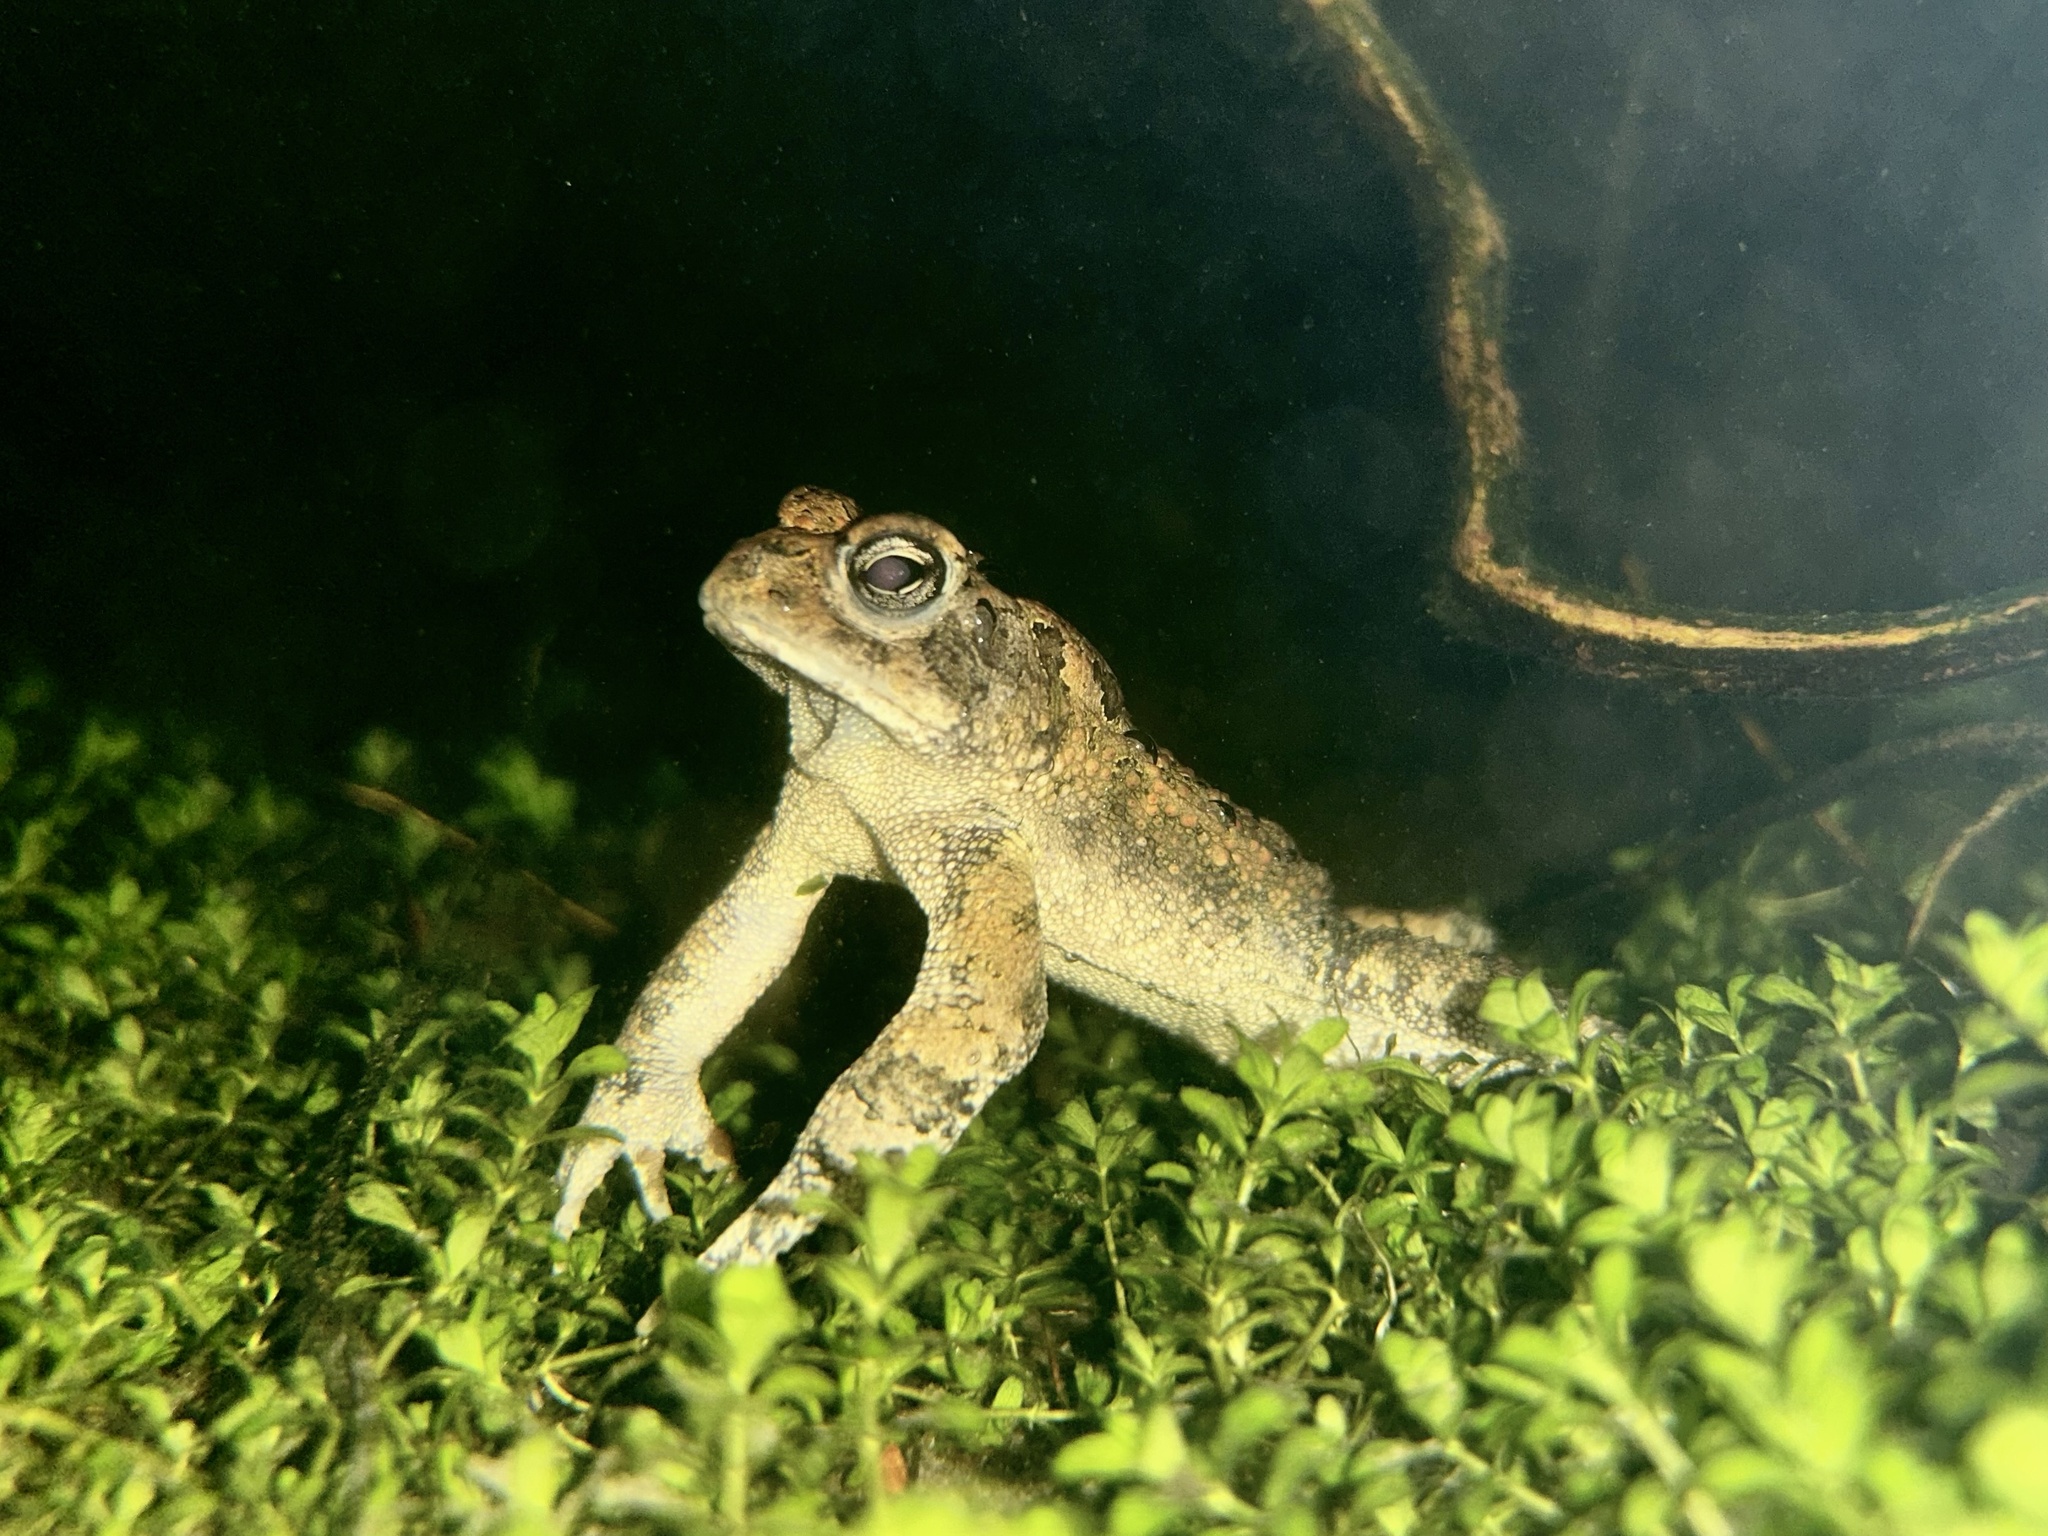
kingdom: Animalia
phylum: Chordata
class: Amphibia
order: Anura
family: Bufonidae
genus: Anaxyrus
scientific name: Anaxyrus terrestris
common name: Southern toad
